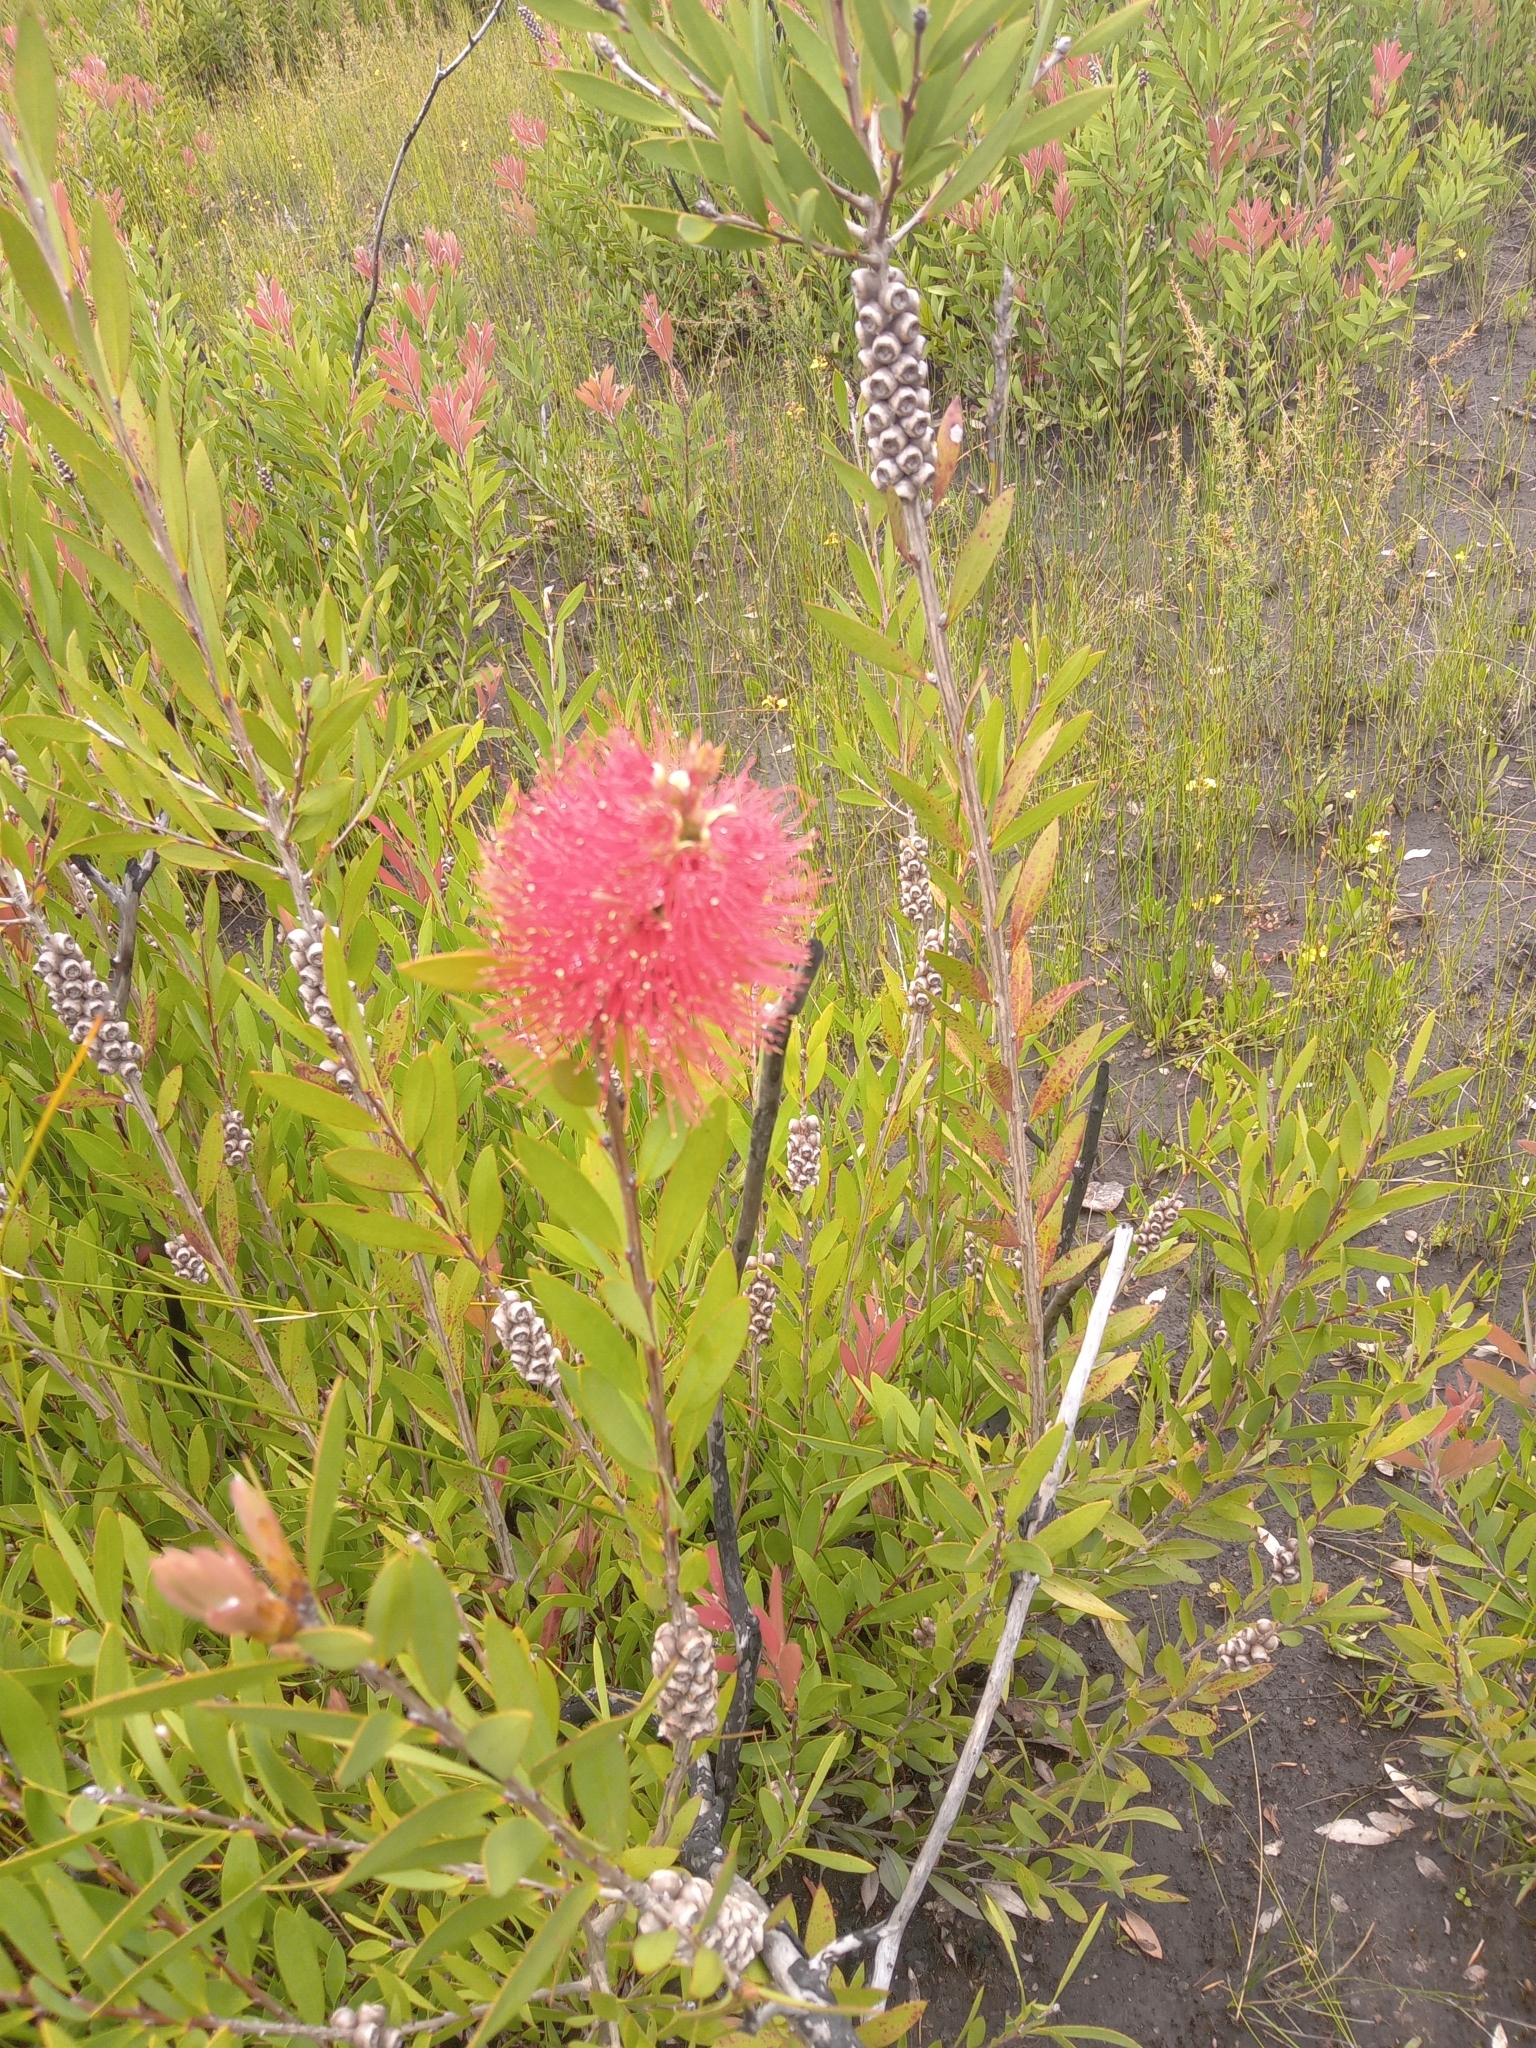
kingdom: Plantae
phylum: Tracheophyta
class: Magnoliopsida
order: Myrtales
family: Myrtaceae
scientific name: Myrtaceae
